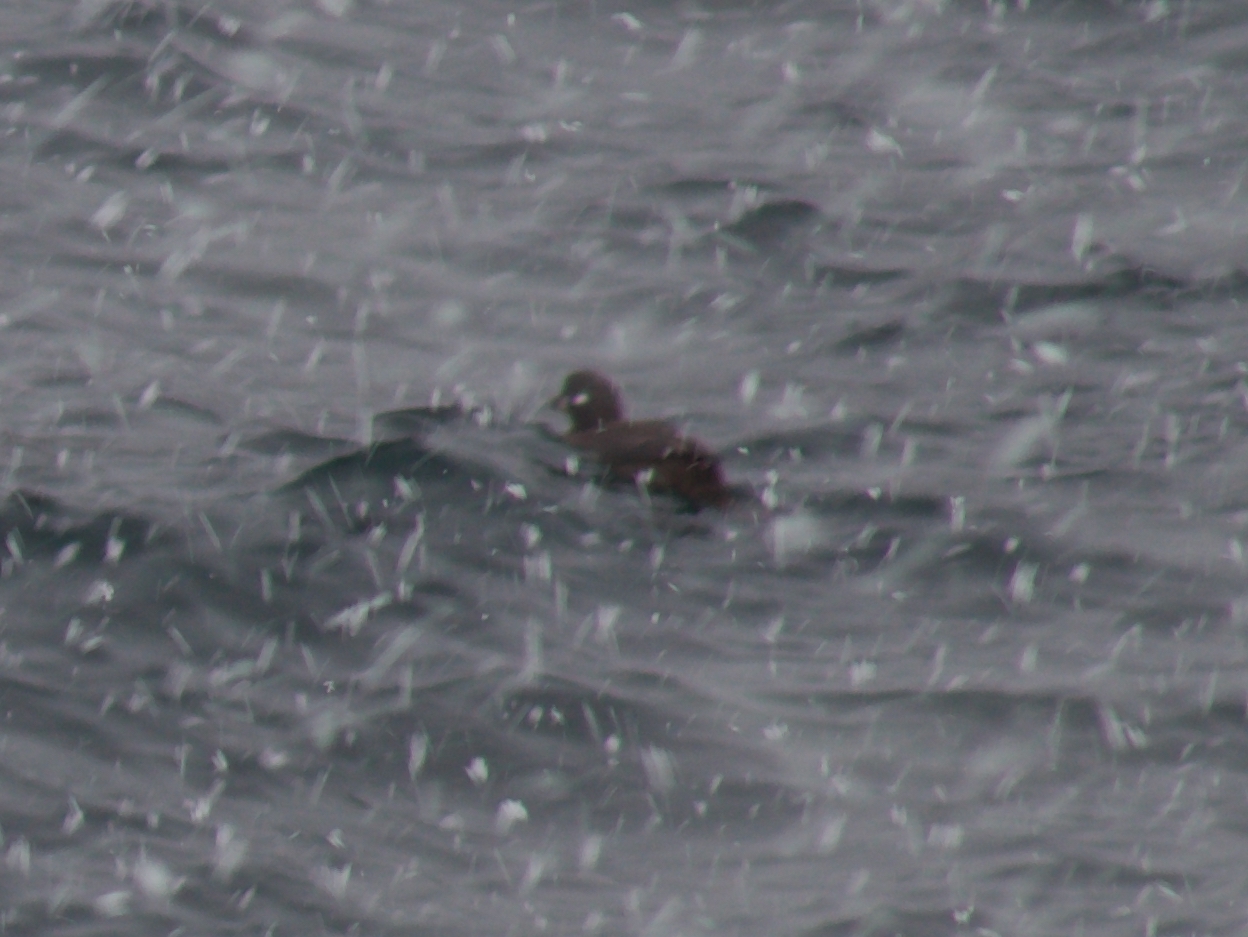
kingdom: Animalia
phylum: Chordata
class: Aves
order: Anseriformes
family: Anatidae
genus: Histrionicus
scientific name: Histrionicus histrionicus
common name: Harlequin duck
